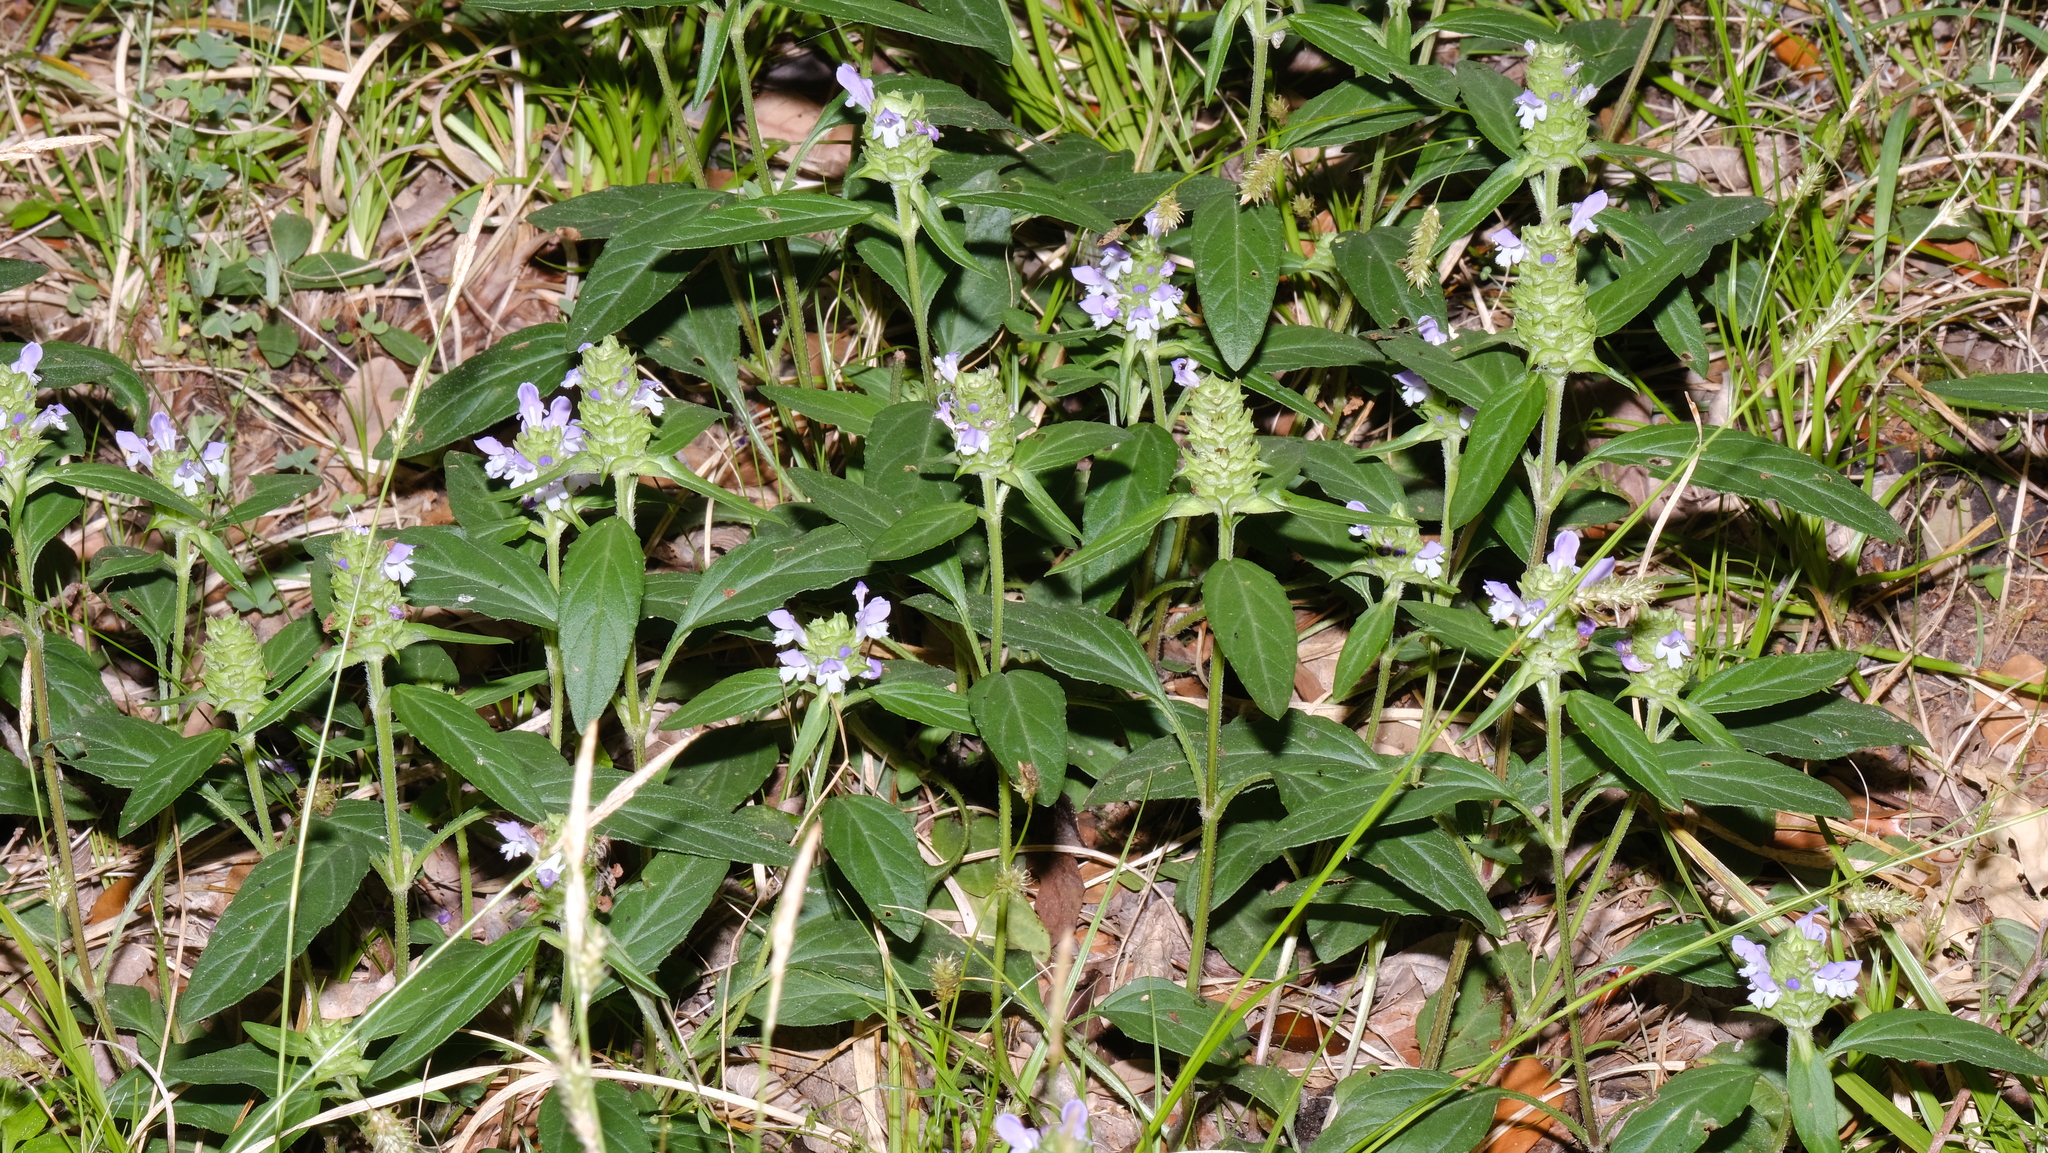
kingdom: Plantae
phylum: Tracheophyta
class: Magnoliopsida
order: Lamiales
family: Lamiaceae
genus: Prunella
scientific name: Prunella vulgaris
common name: Heal-all
